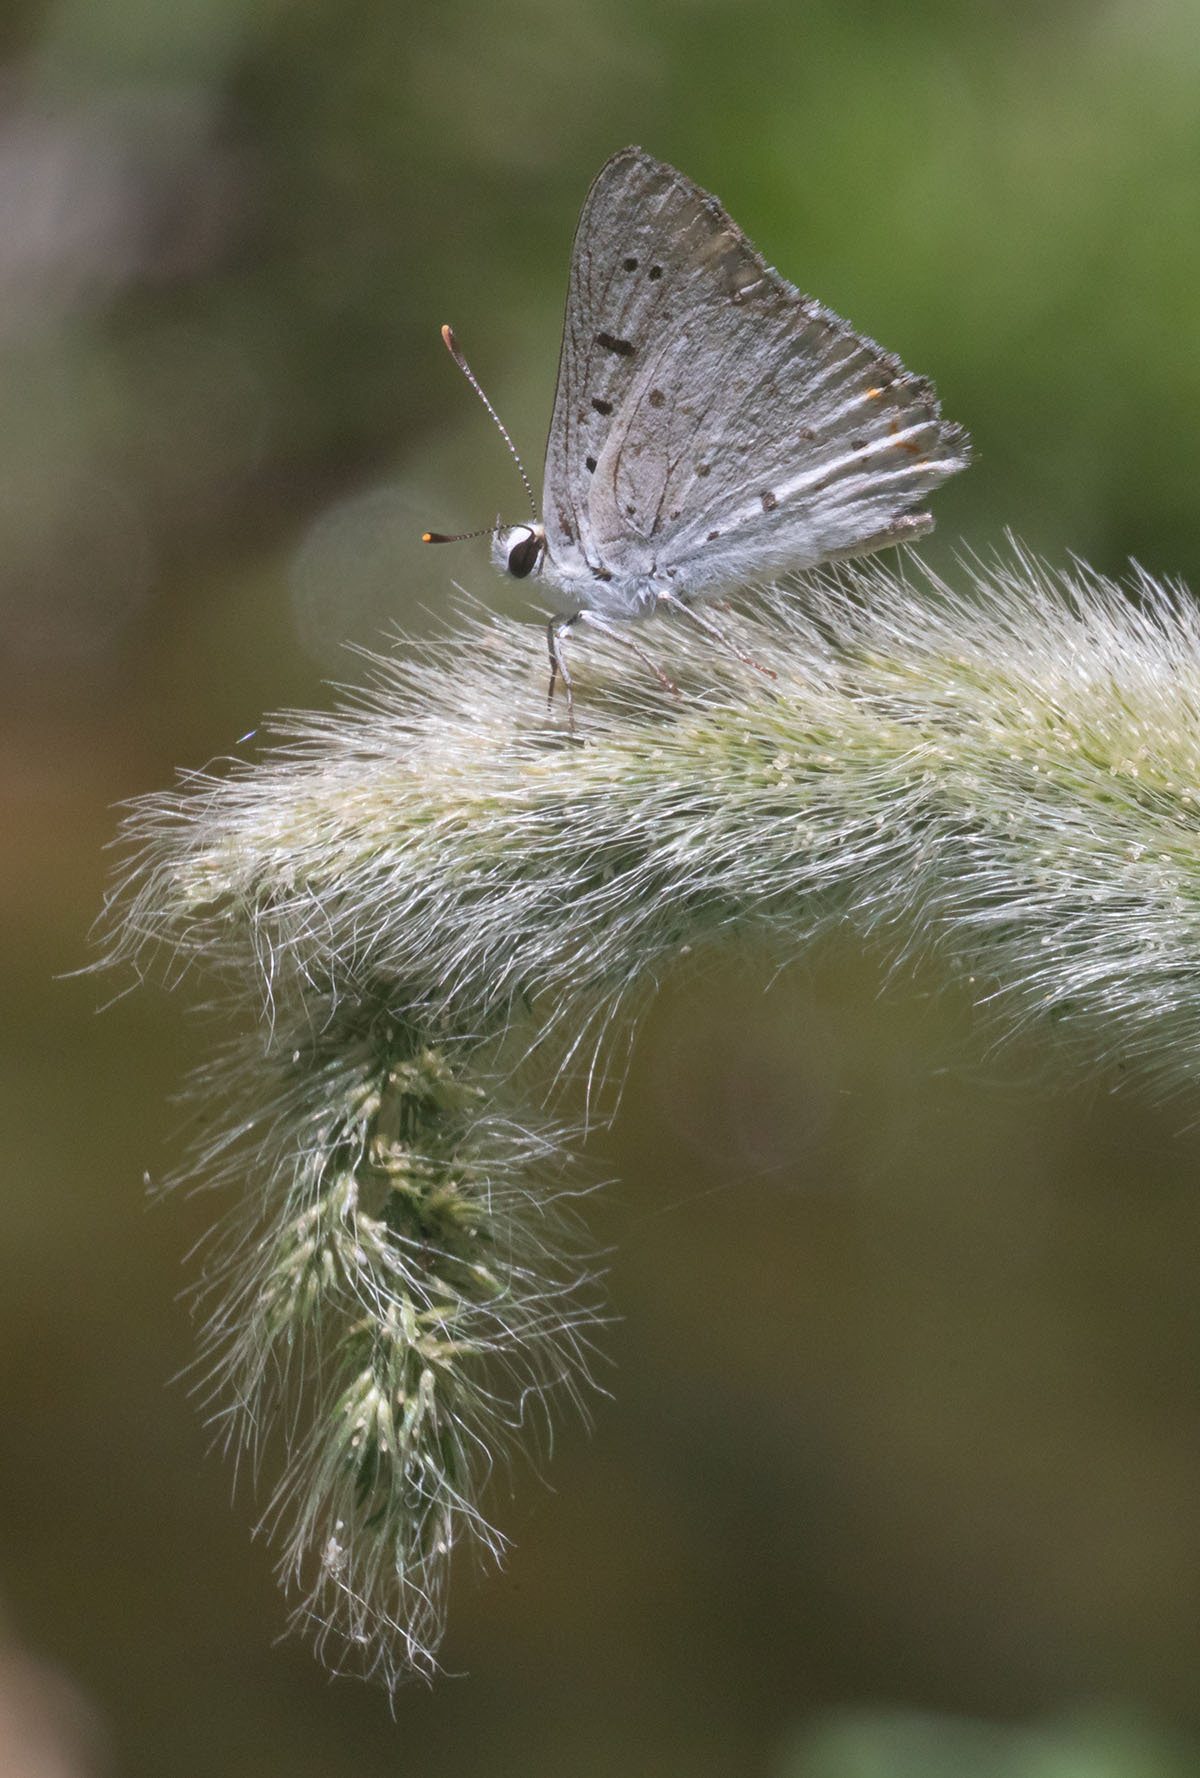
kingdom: Animalia
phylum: Arthropoda
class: Insecta
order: Lepidoptera
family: Lycaenidae
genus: Tharsalea
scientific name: Tharsalea xanthoides
